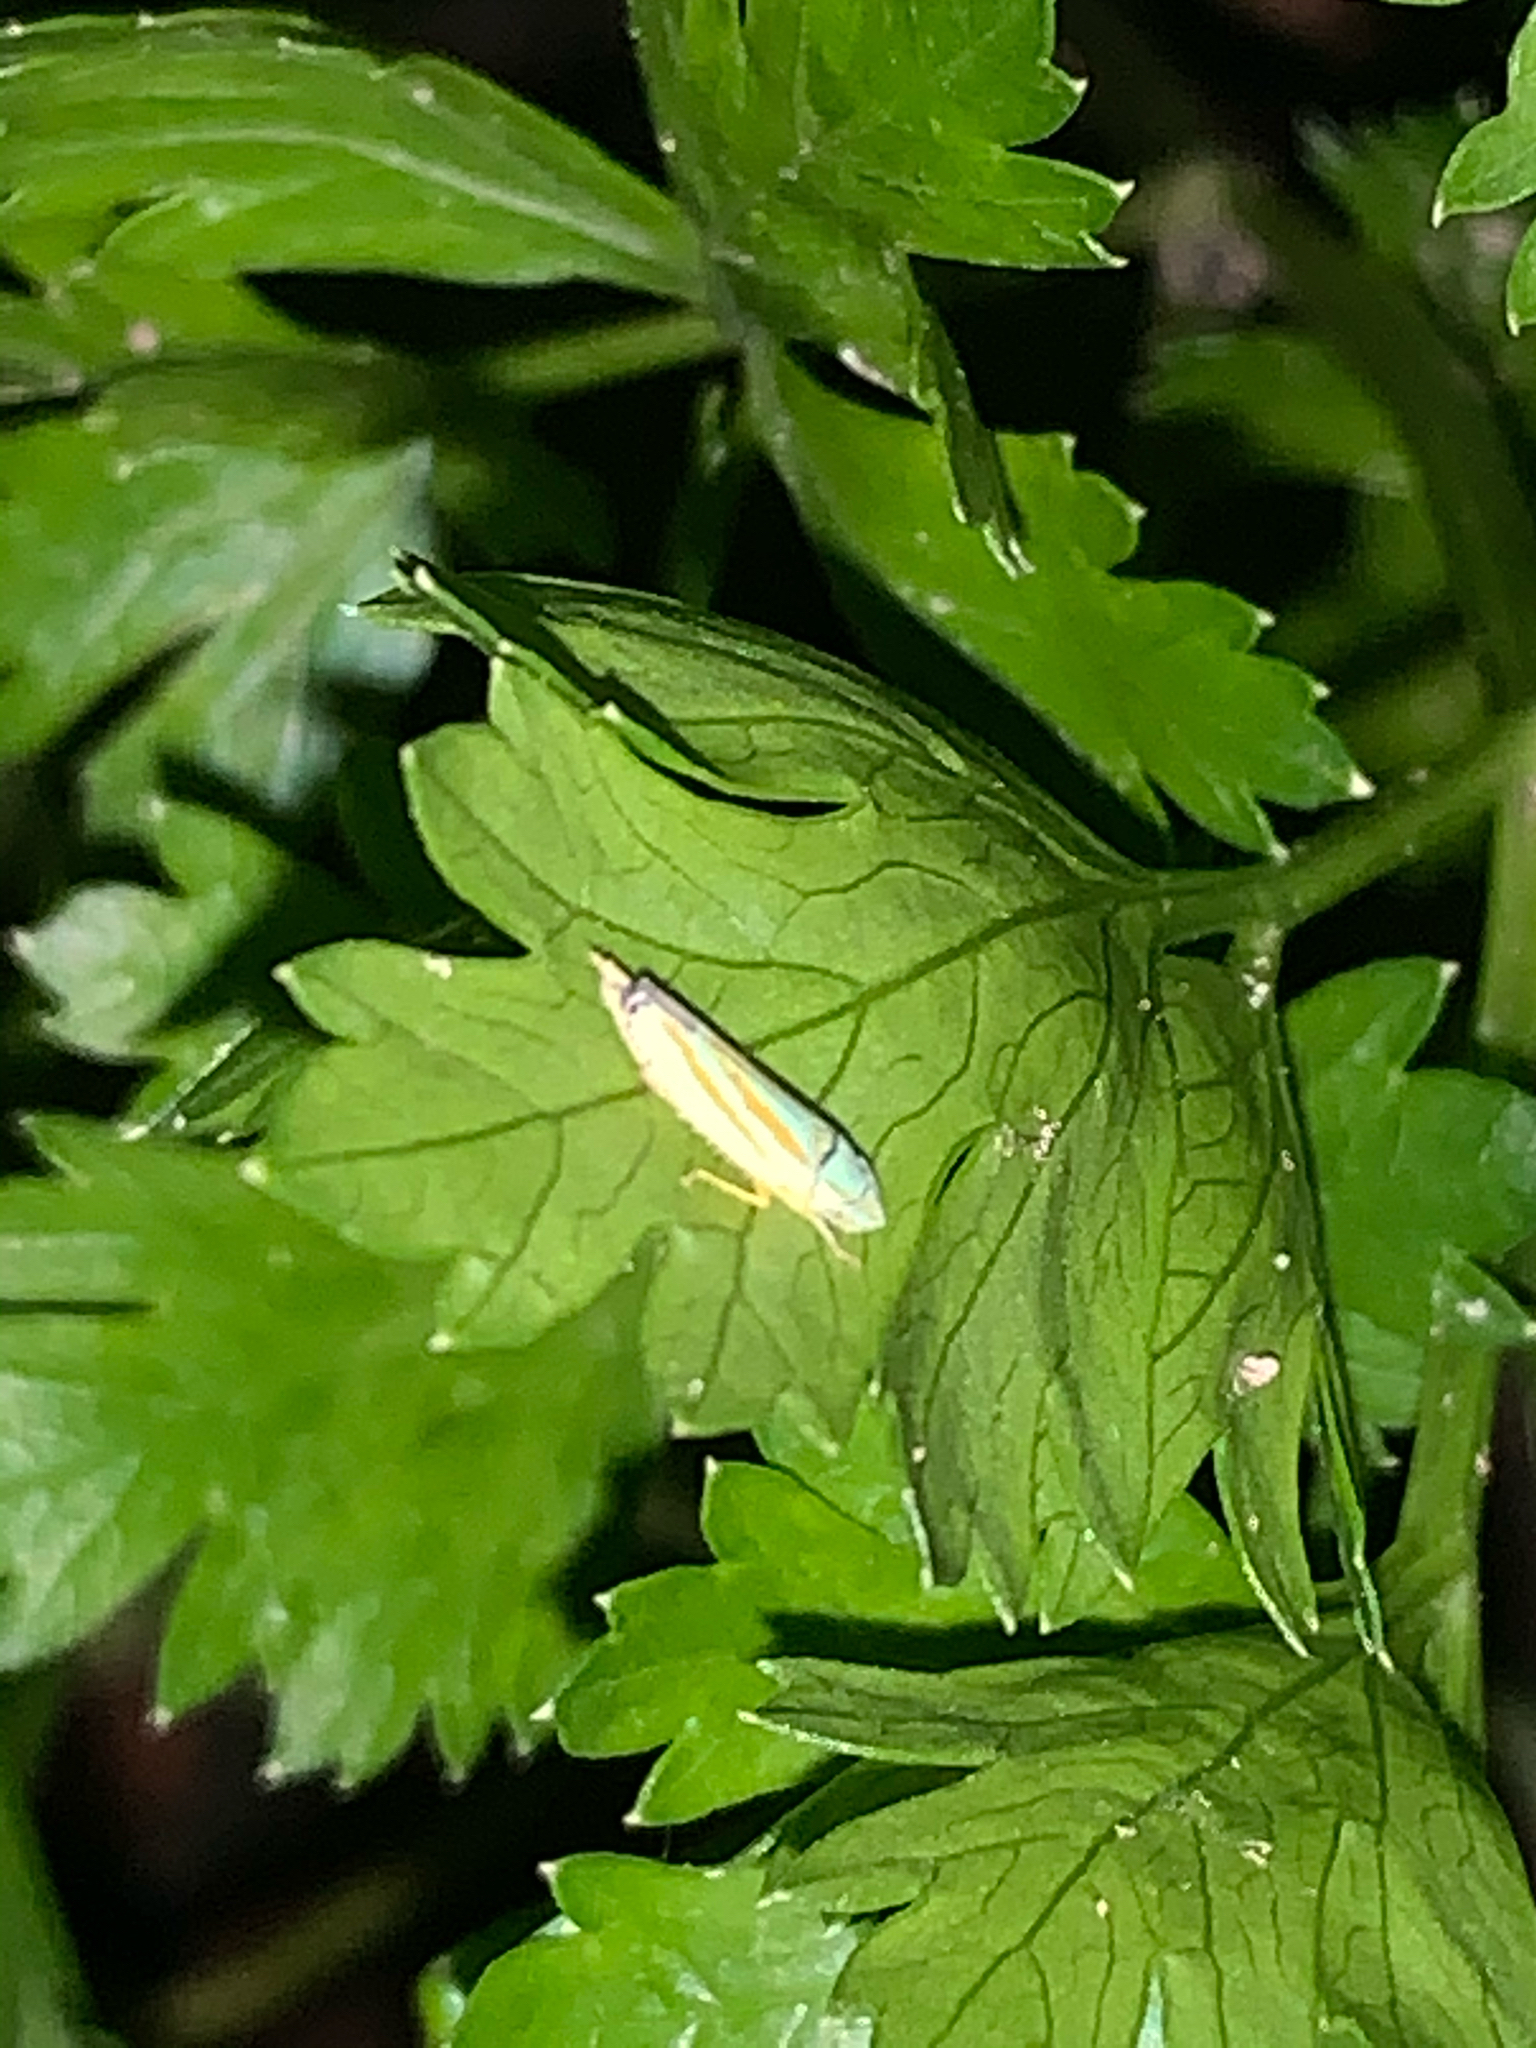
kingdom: Animalia
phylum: Arthropoda
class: Insecta
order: Hemiptera
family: Cicadellidae
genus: Graphocephala
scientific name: Graphocephala versuta
